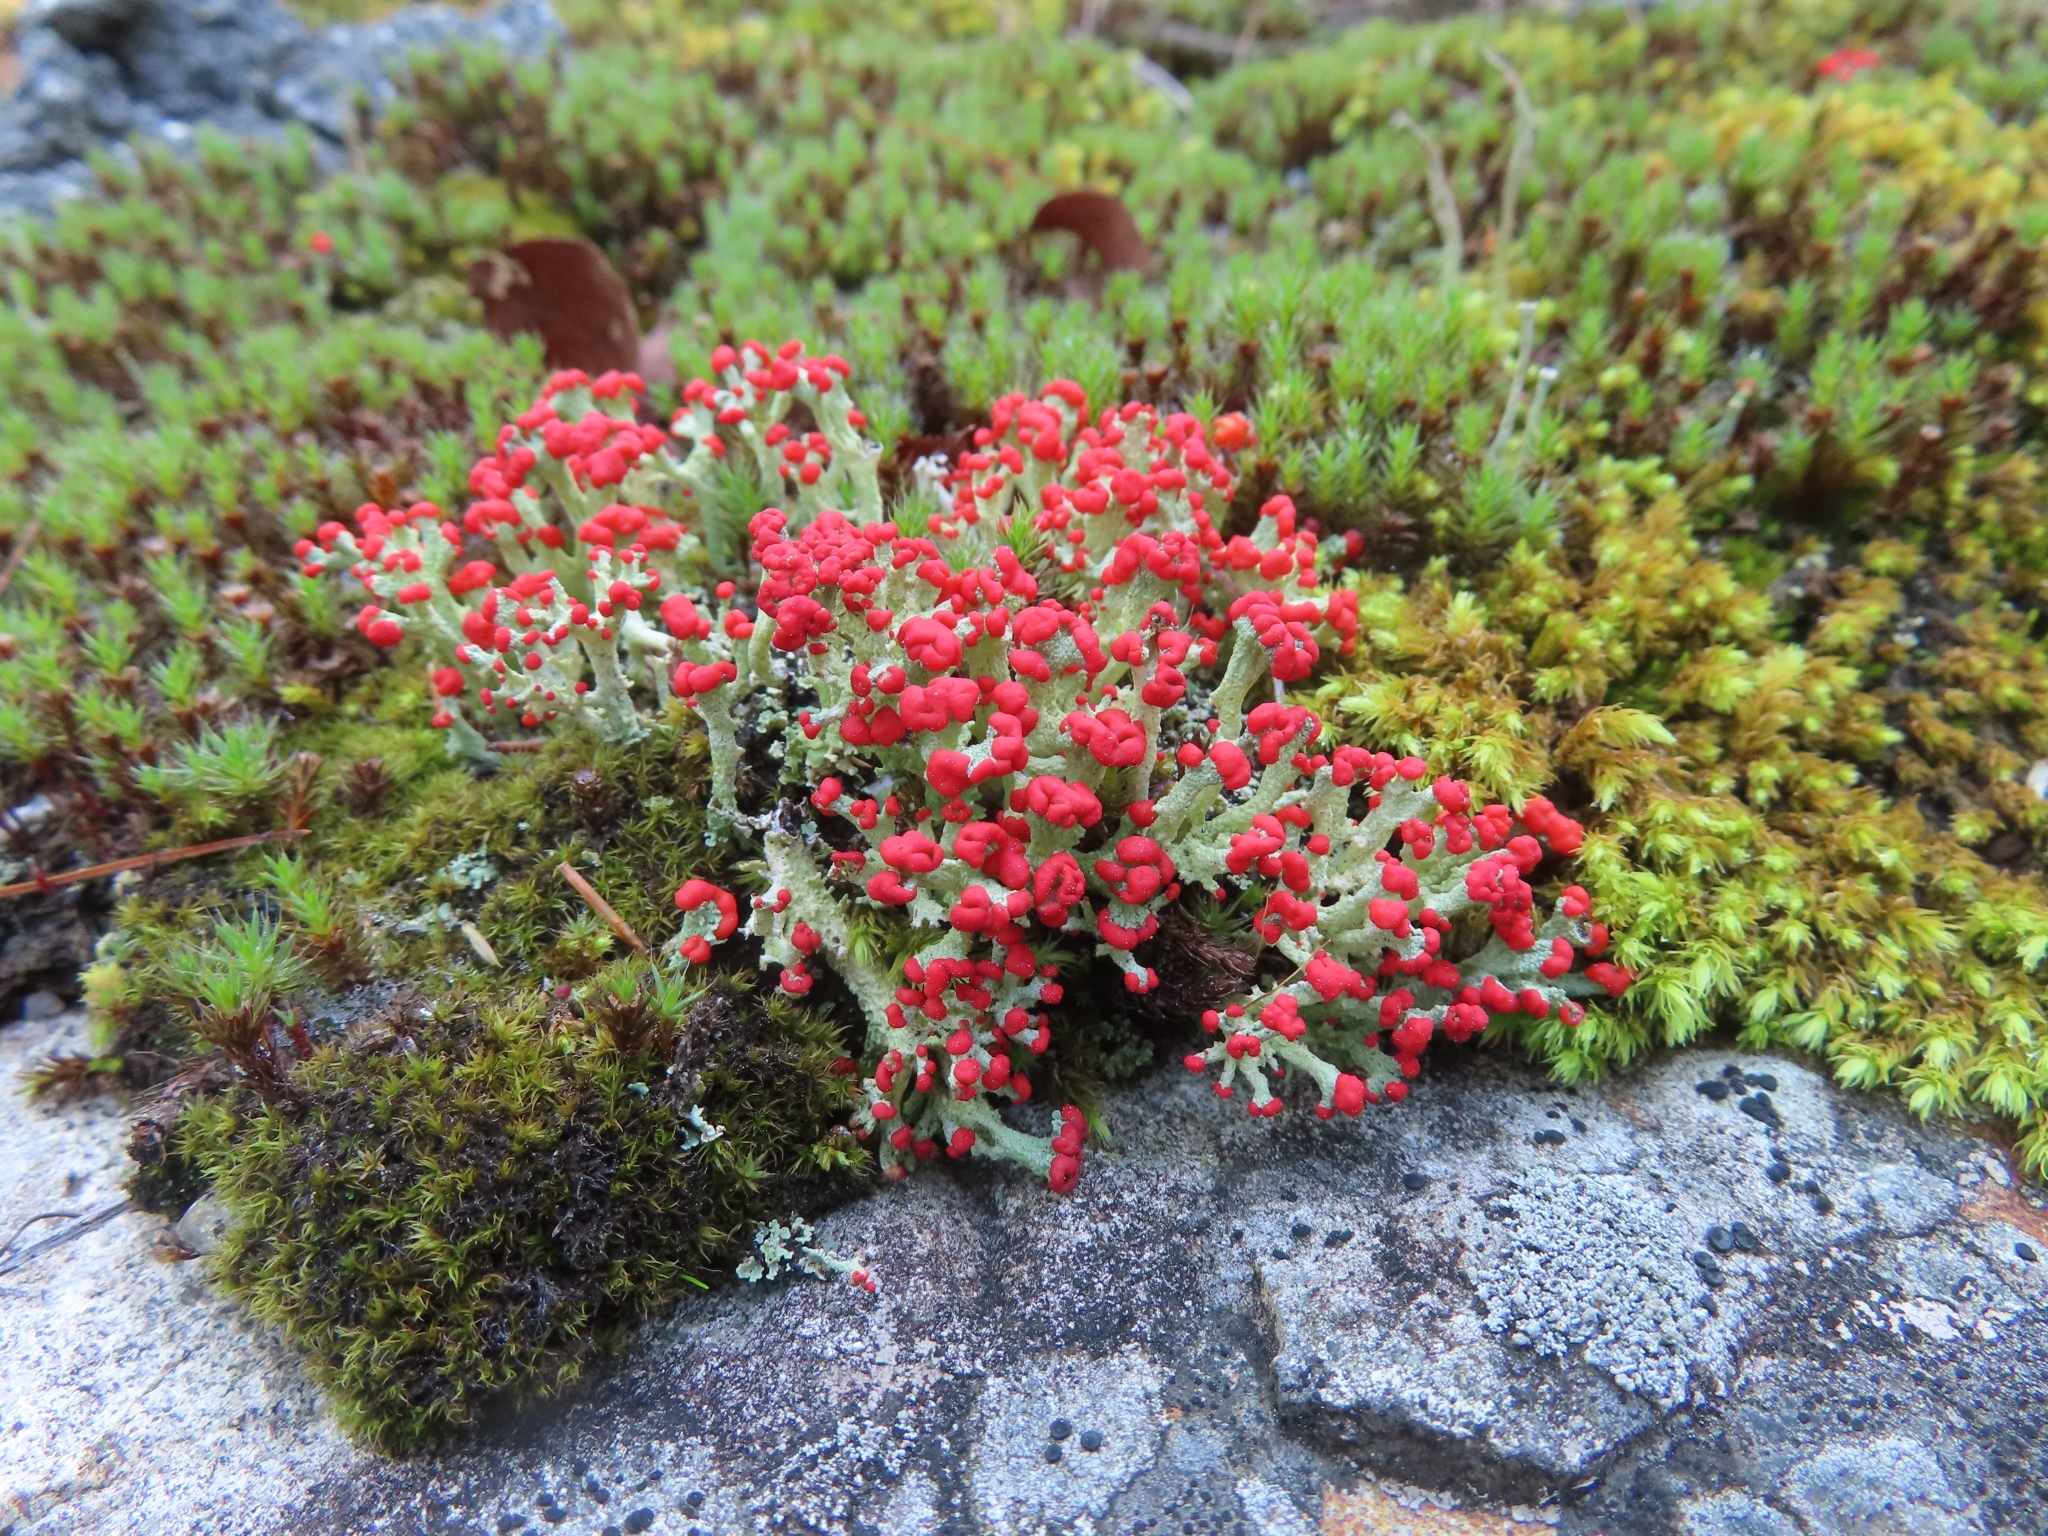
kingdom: Fungi
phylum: Ascomycota
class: Lecanoromycetes
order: Lecanorales
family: Cladoniaceae
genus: Cladonia
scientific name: Cladonia cristatella
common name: British soldier lichen
